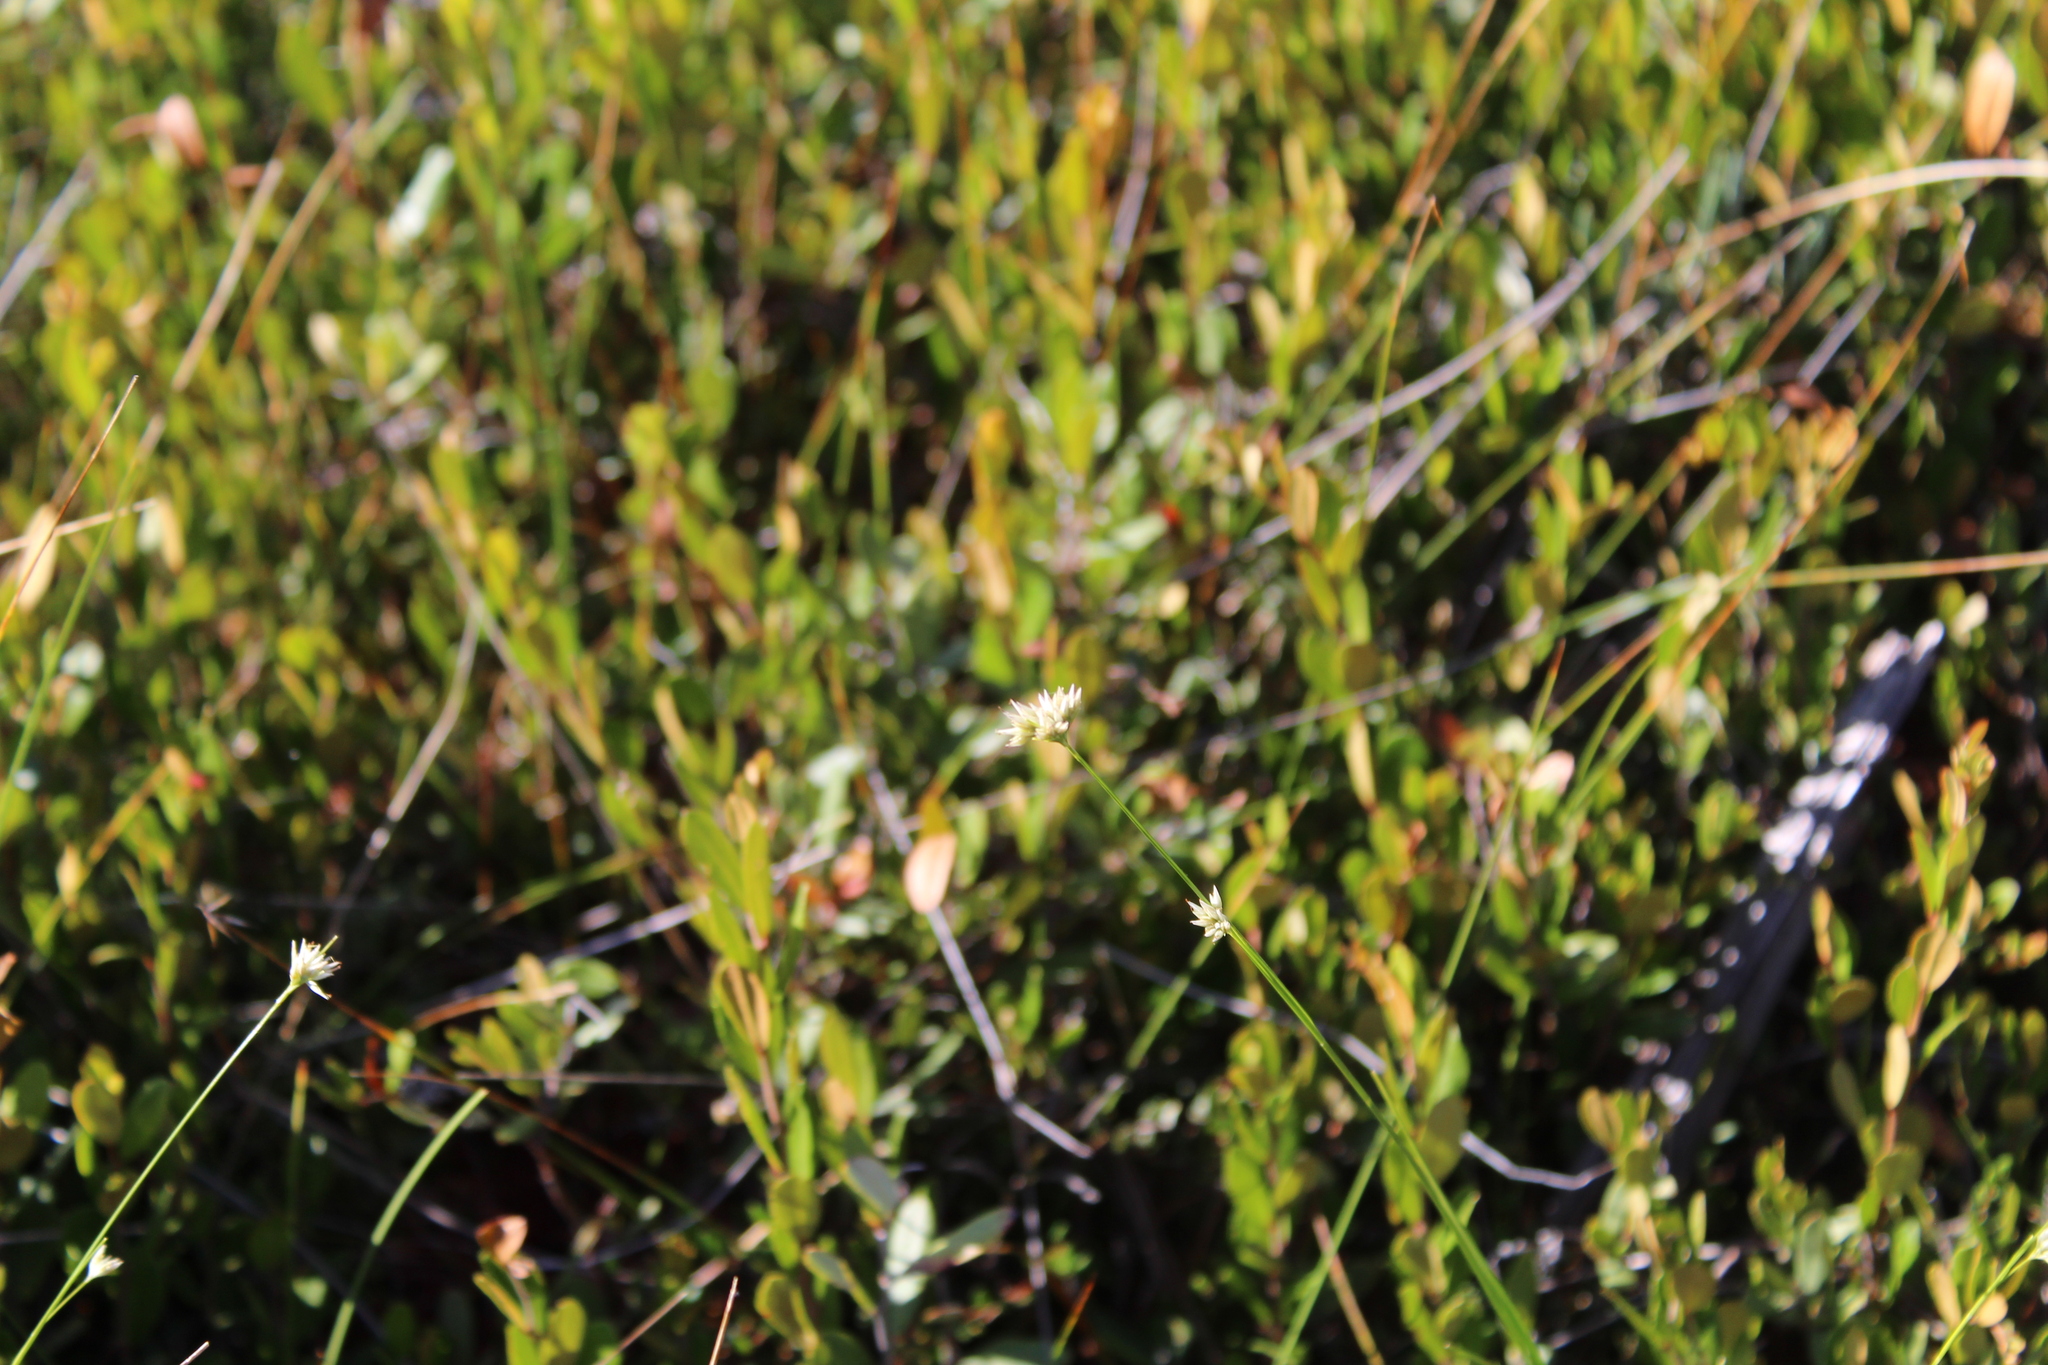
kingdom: Plantae
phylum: Tracheophyta
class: Magnoliopsida
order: Ericales
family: Ericaceae
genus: Chamaedaphne
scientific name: Chamaedaphne calyculata
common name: Leatherleaf
